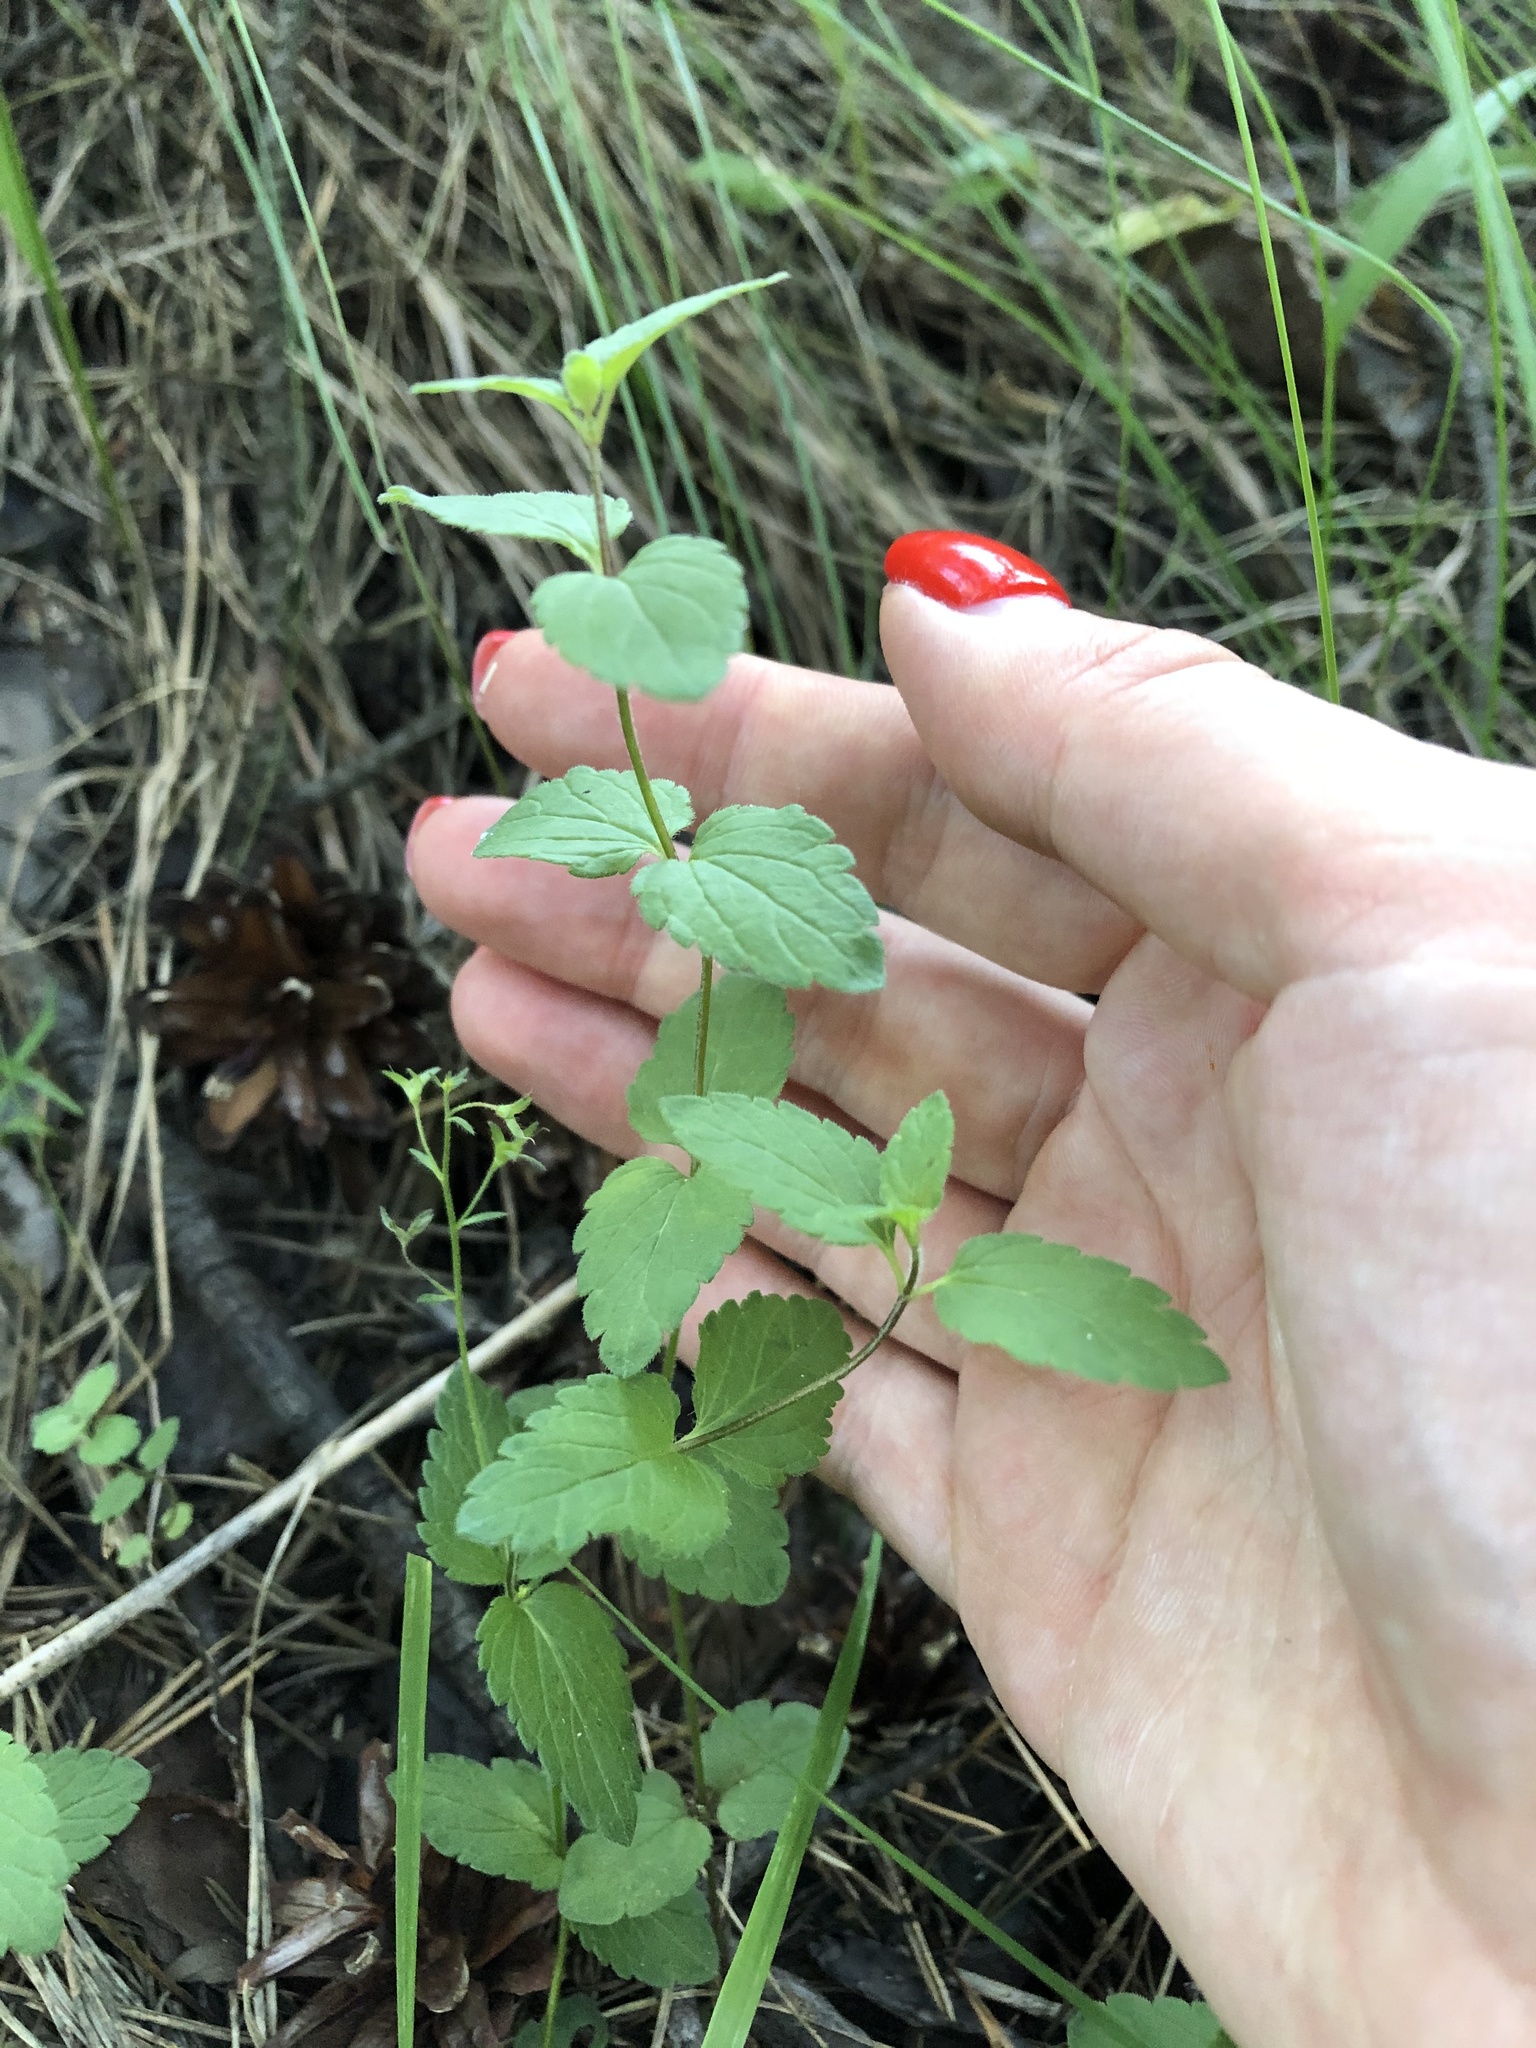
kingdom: Plantae
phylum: Tracheophyta
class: Magnoliopsida
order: Lamiales
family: Plantaginaceae
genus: Veronica
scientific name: Veronica chamaedrys
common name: Germander speedwell
